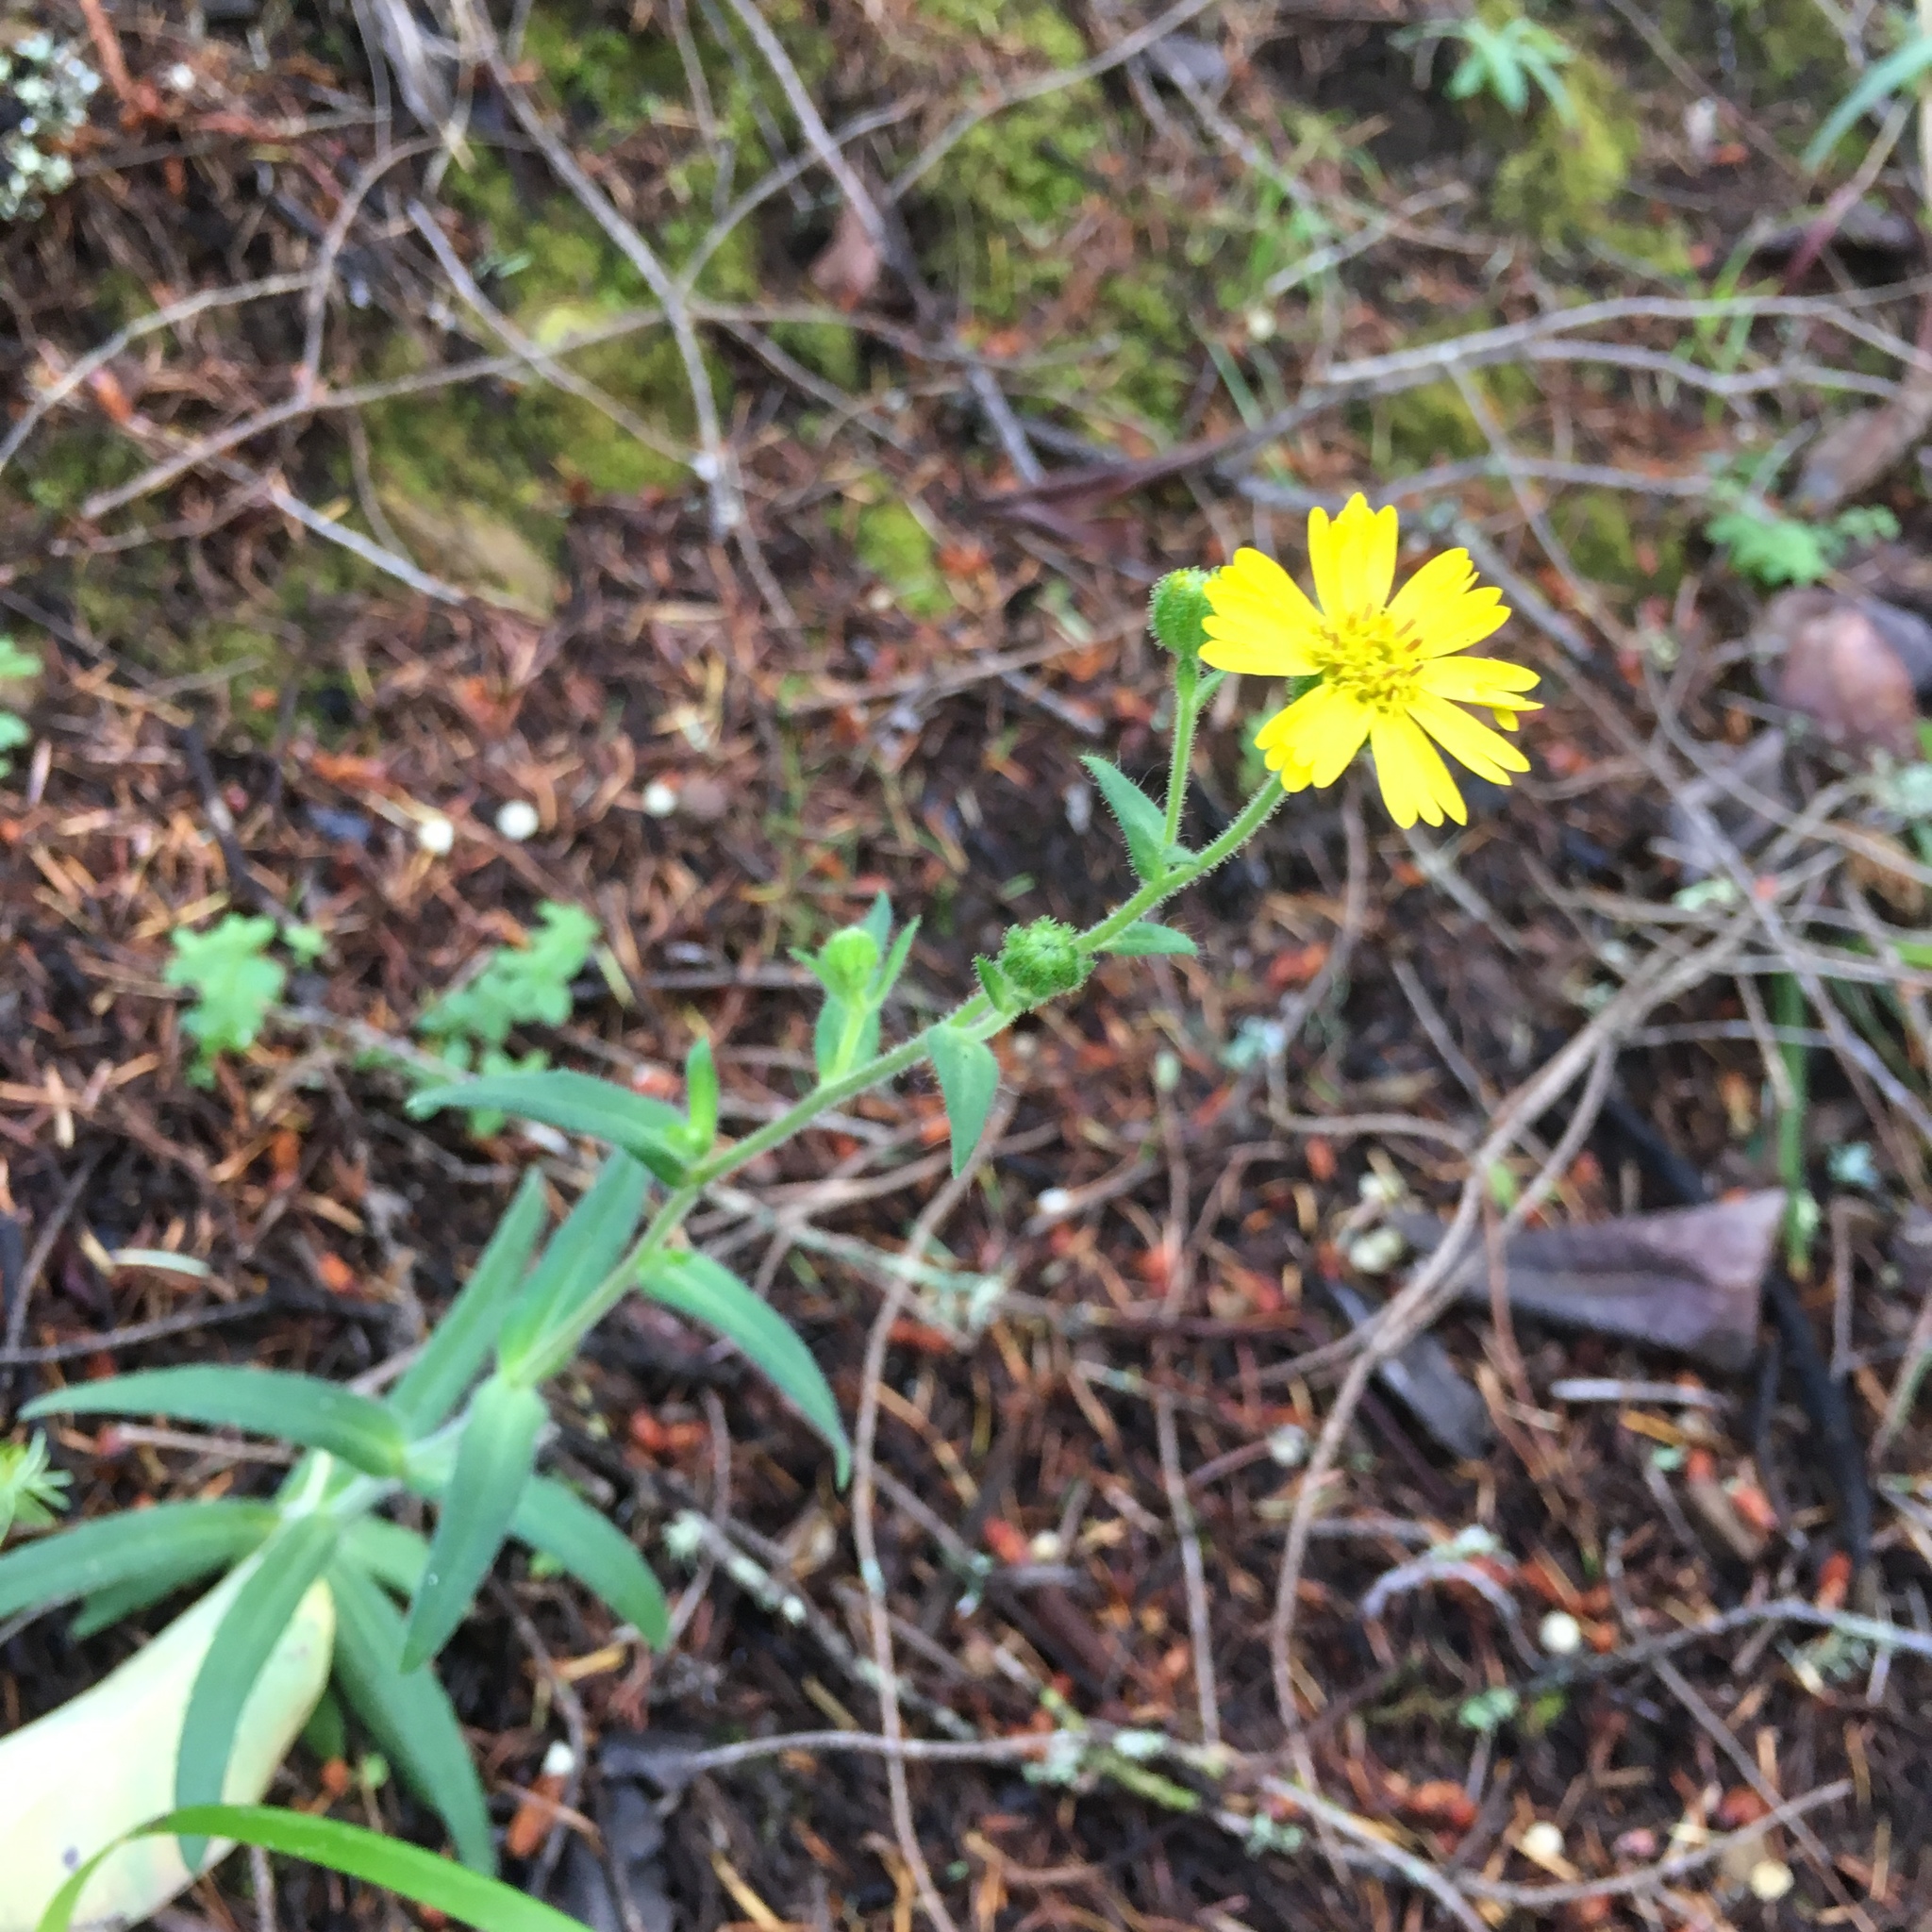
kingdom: Plantae
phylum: Tracheophyta
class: Magnoliopsida
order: Asterales
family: Asteraceae
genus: Anisocarpus
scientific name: Anisocarpus madioides
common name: Woodland madia
